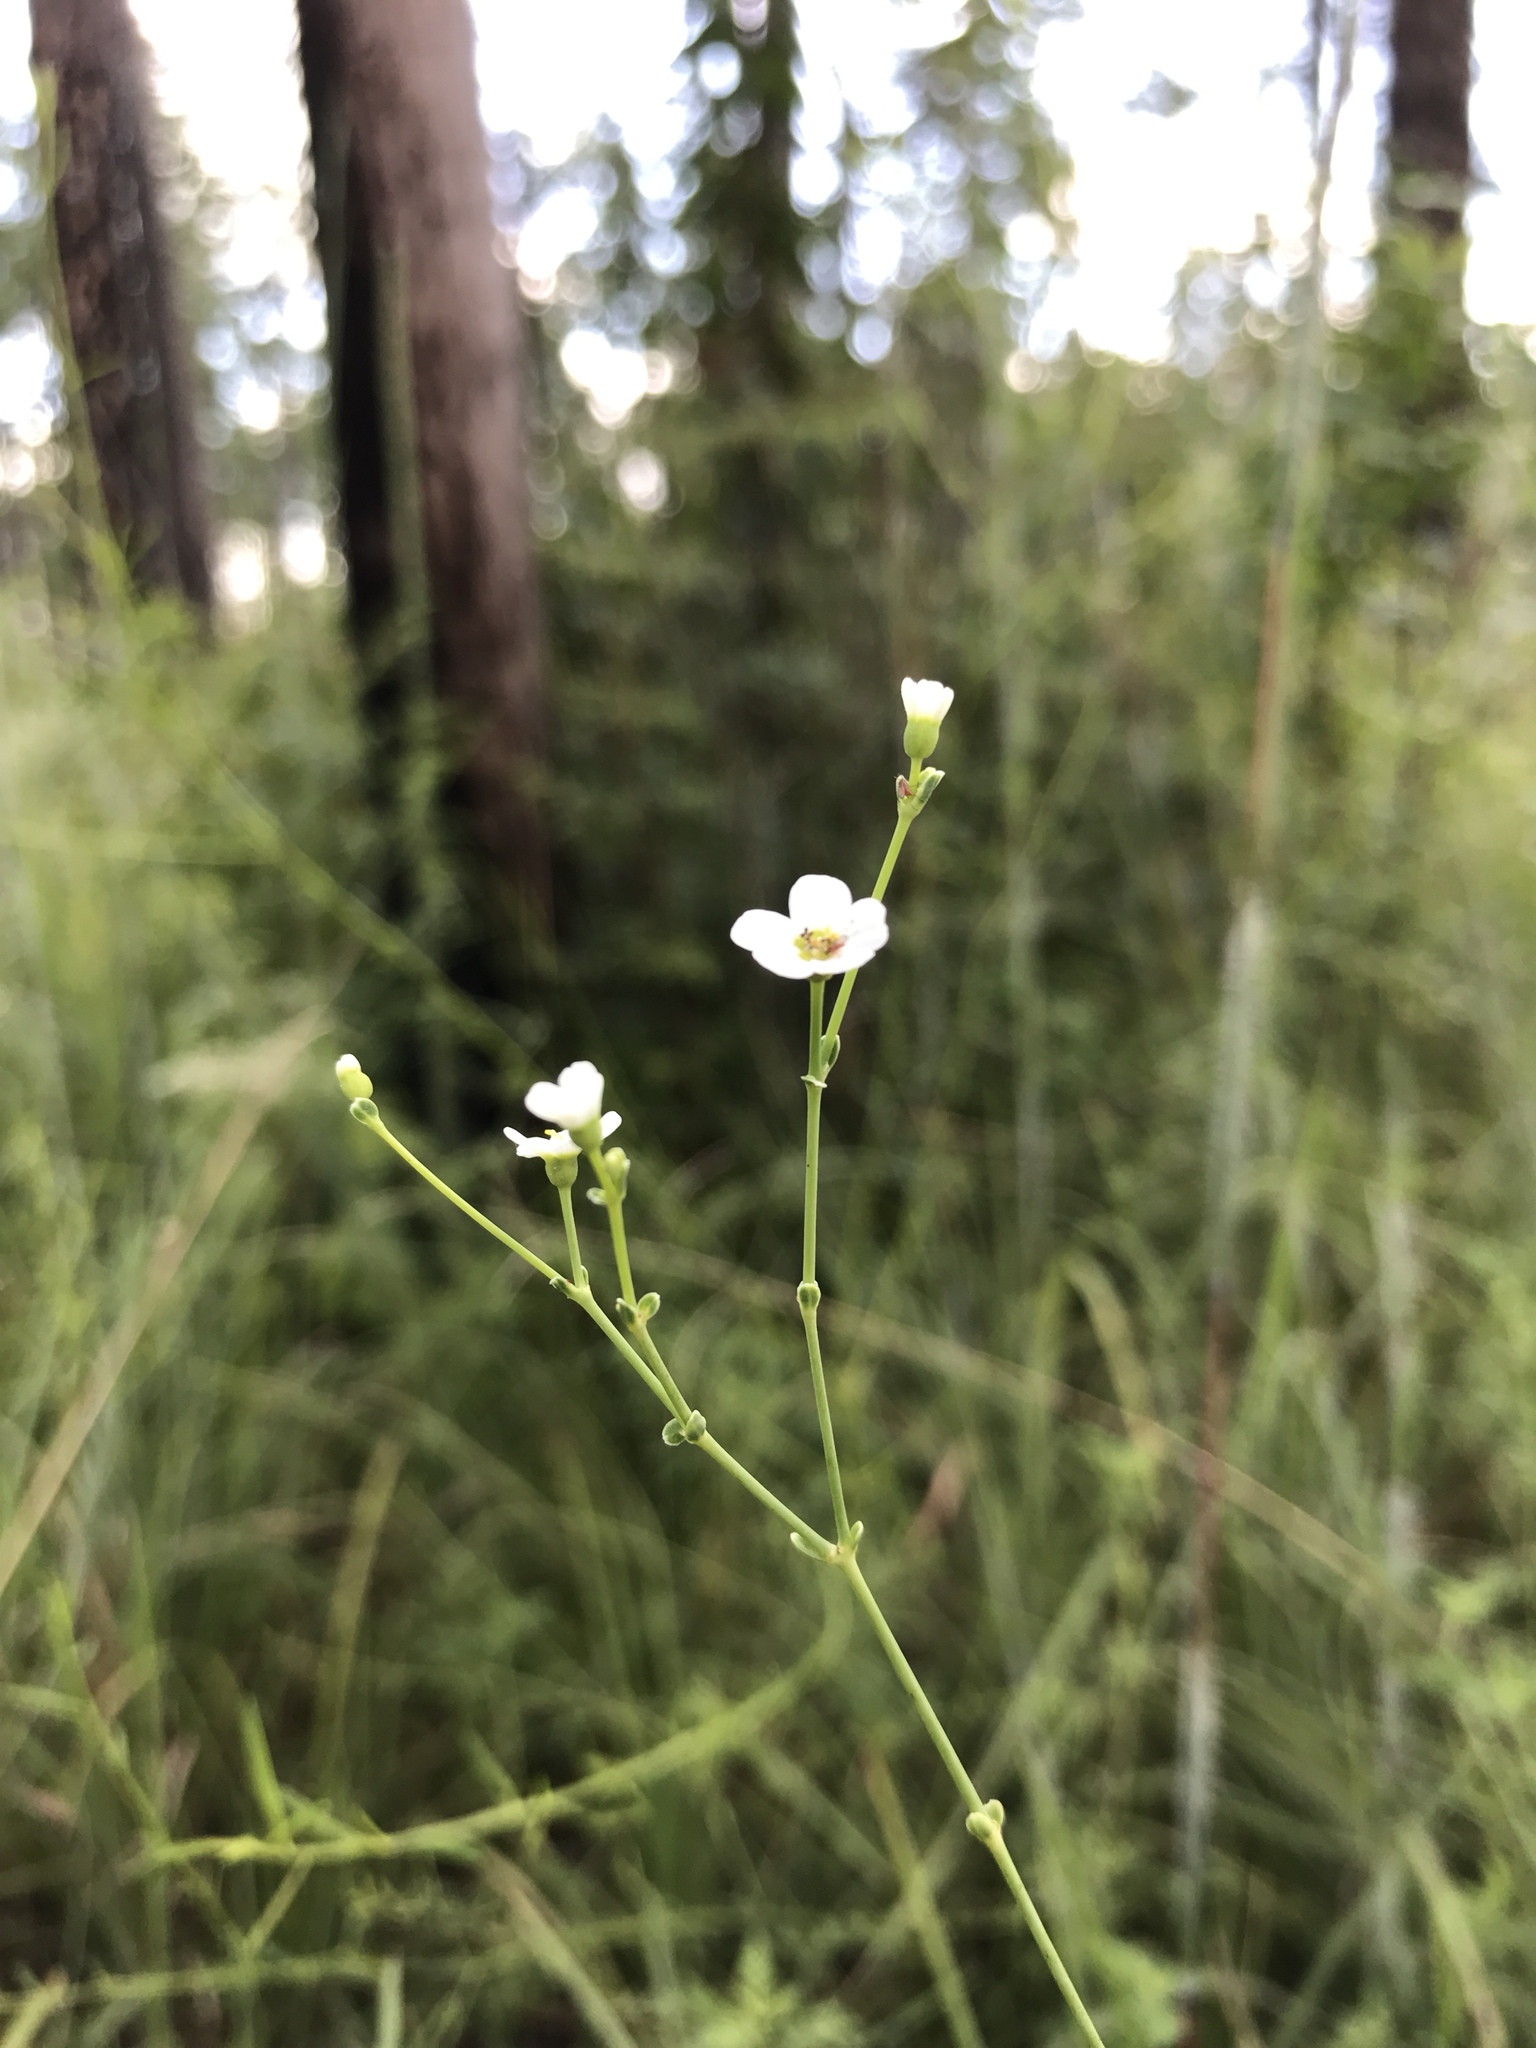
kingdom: Plantae
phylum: Tracheophyta
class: Magnoliopsida
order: Malpighiales
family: Euphorbiaceae
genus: Euphorbia
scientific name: Euphorbia corollata
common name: Flowering spurge
